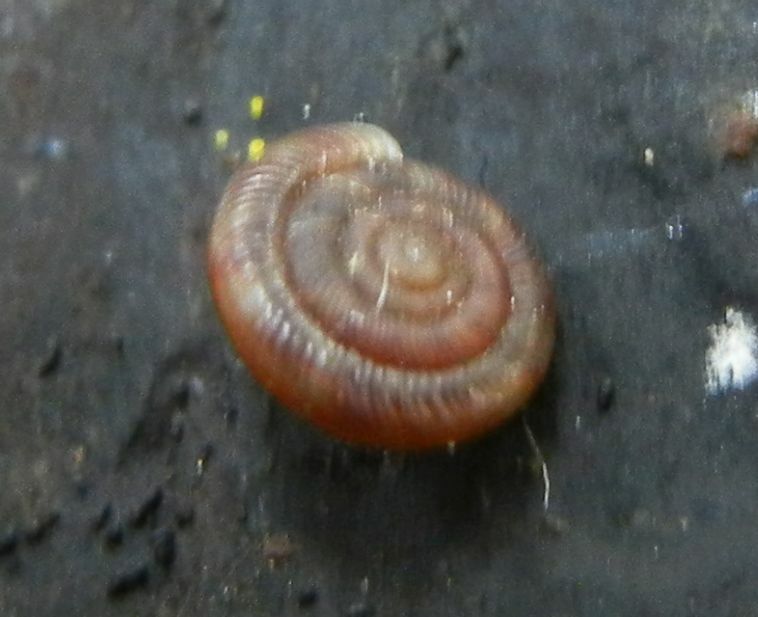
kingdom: Animalia
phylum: Mollusca
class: Gastropoda
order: Stylommatophora
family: Discidae
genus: Discus
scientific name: Discus rotundatus
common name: Rounded snail
